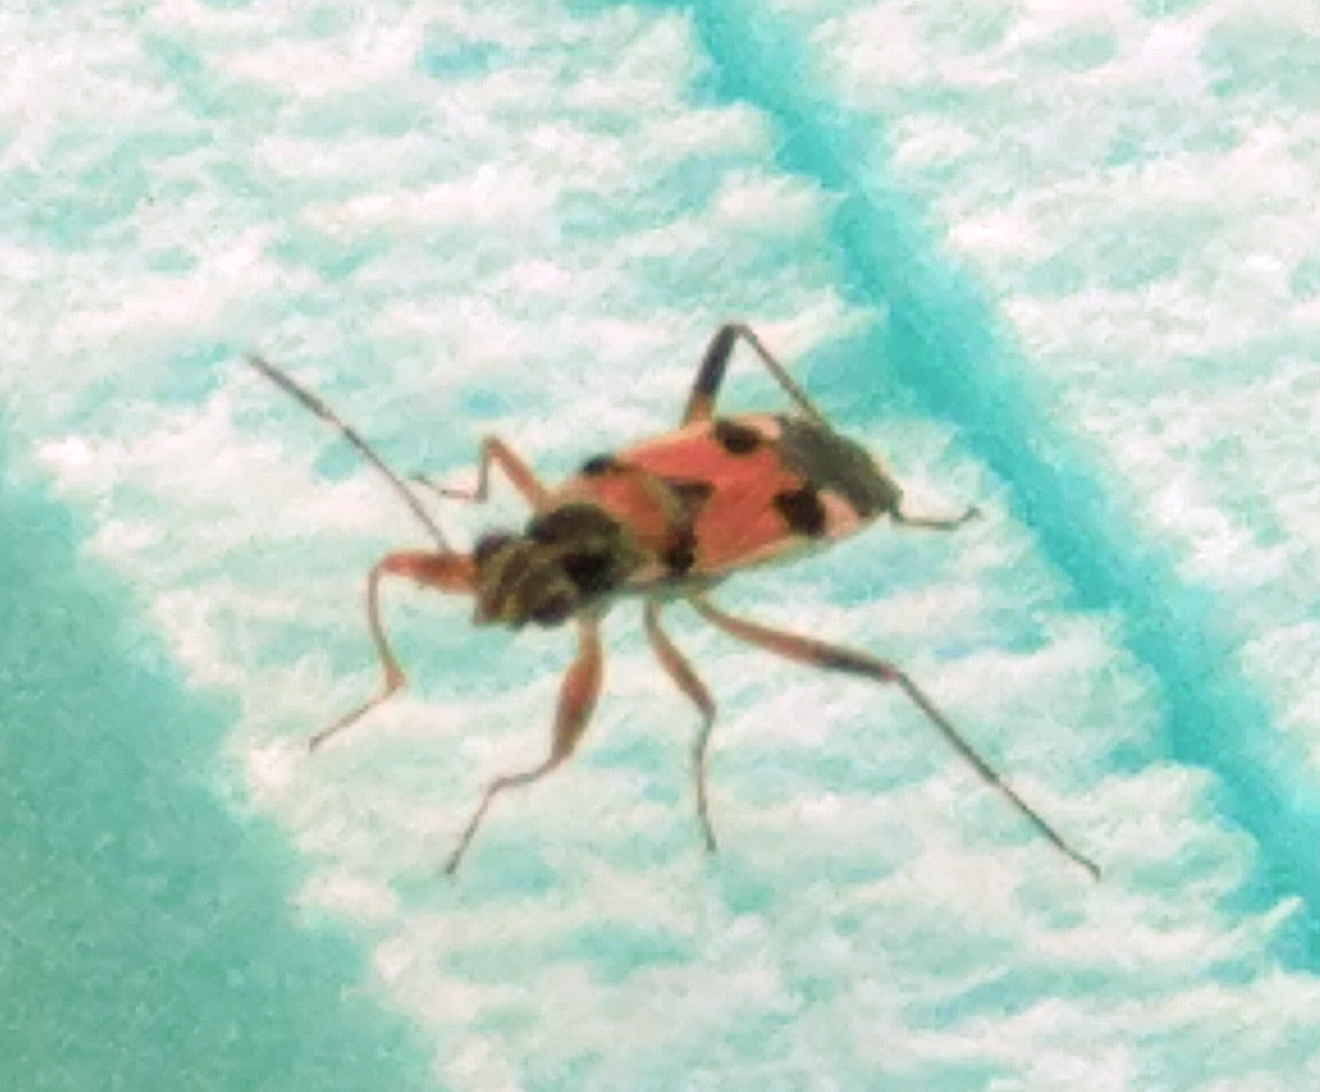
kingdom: Animalia
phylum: Arthropoda
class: Insecta
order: Hemiptera
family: Rhyparochromidae
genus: Beosus
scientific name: Beosus quadripunctatus
